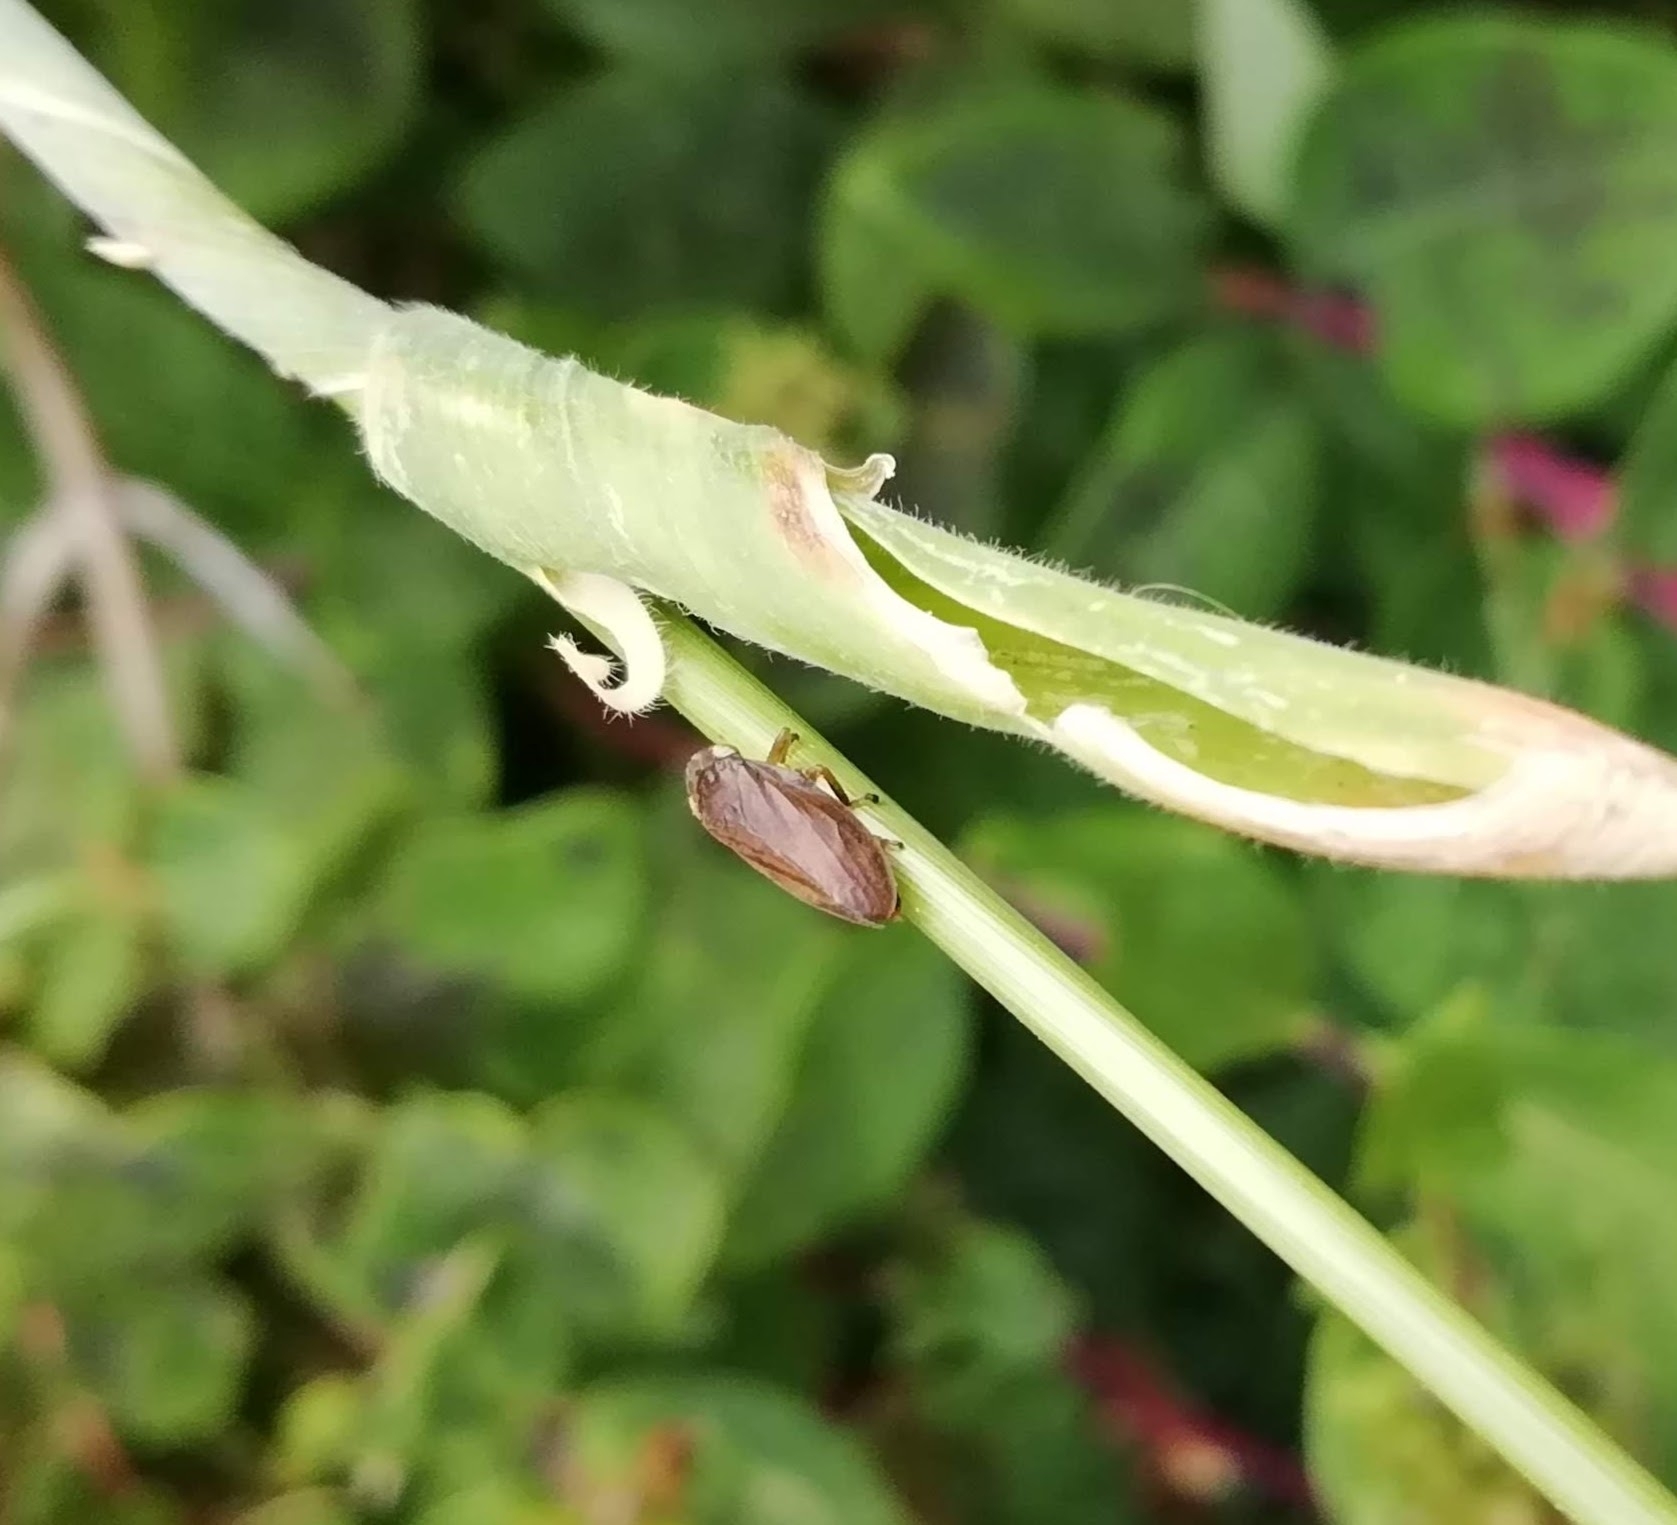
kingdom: Animalia
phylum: Arthropoda
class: Insecta
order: Hemiptera
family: Aphrophoridae
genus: Philaenus
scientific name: Philaenus spumarius
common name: Meadow spittlebug
